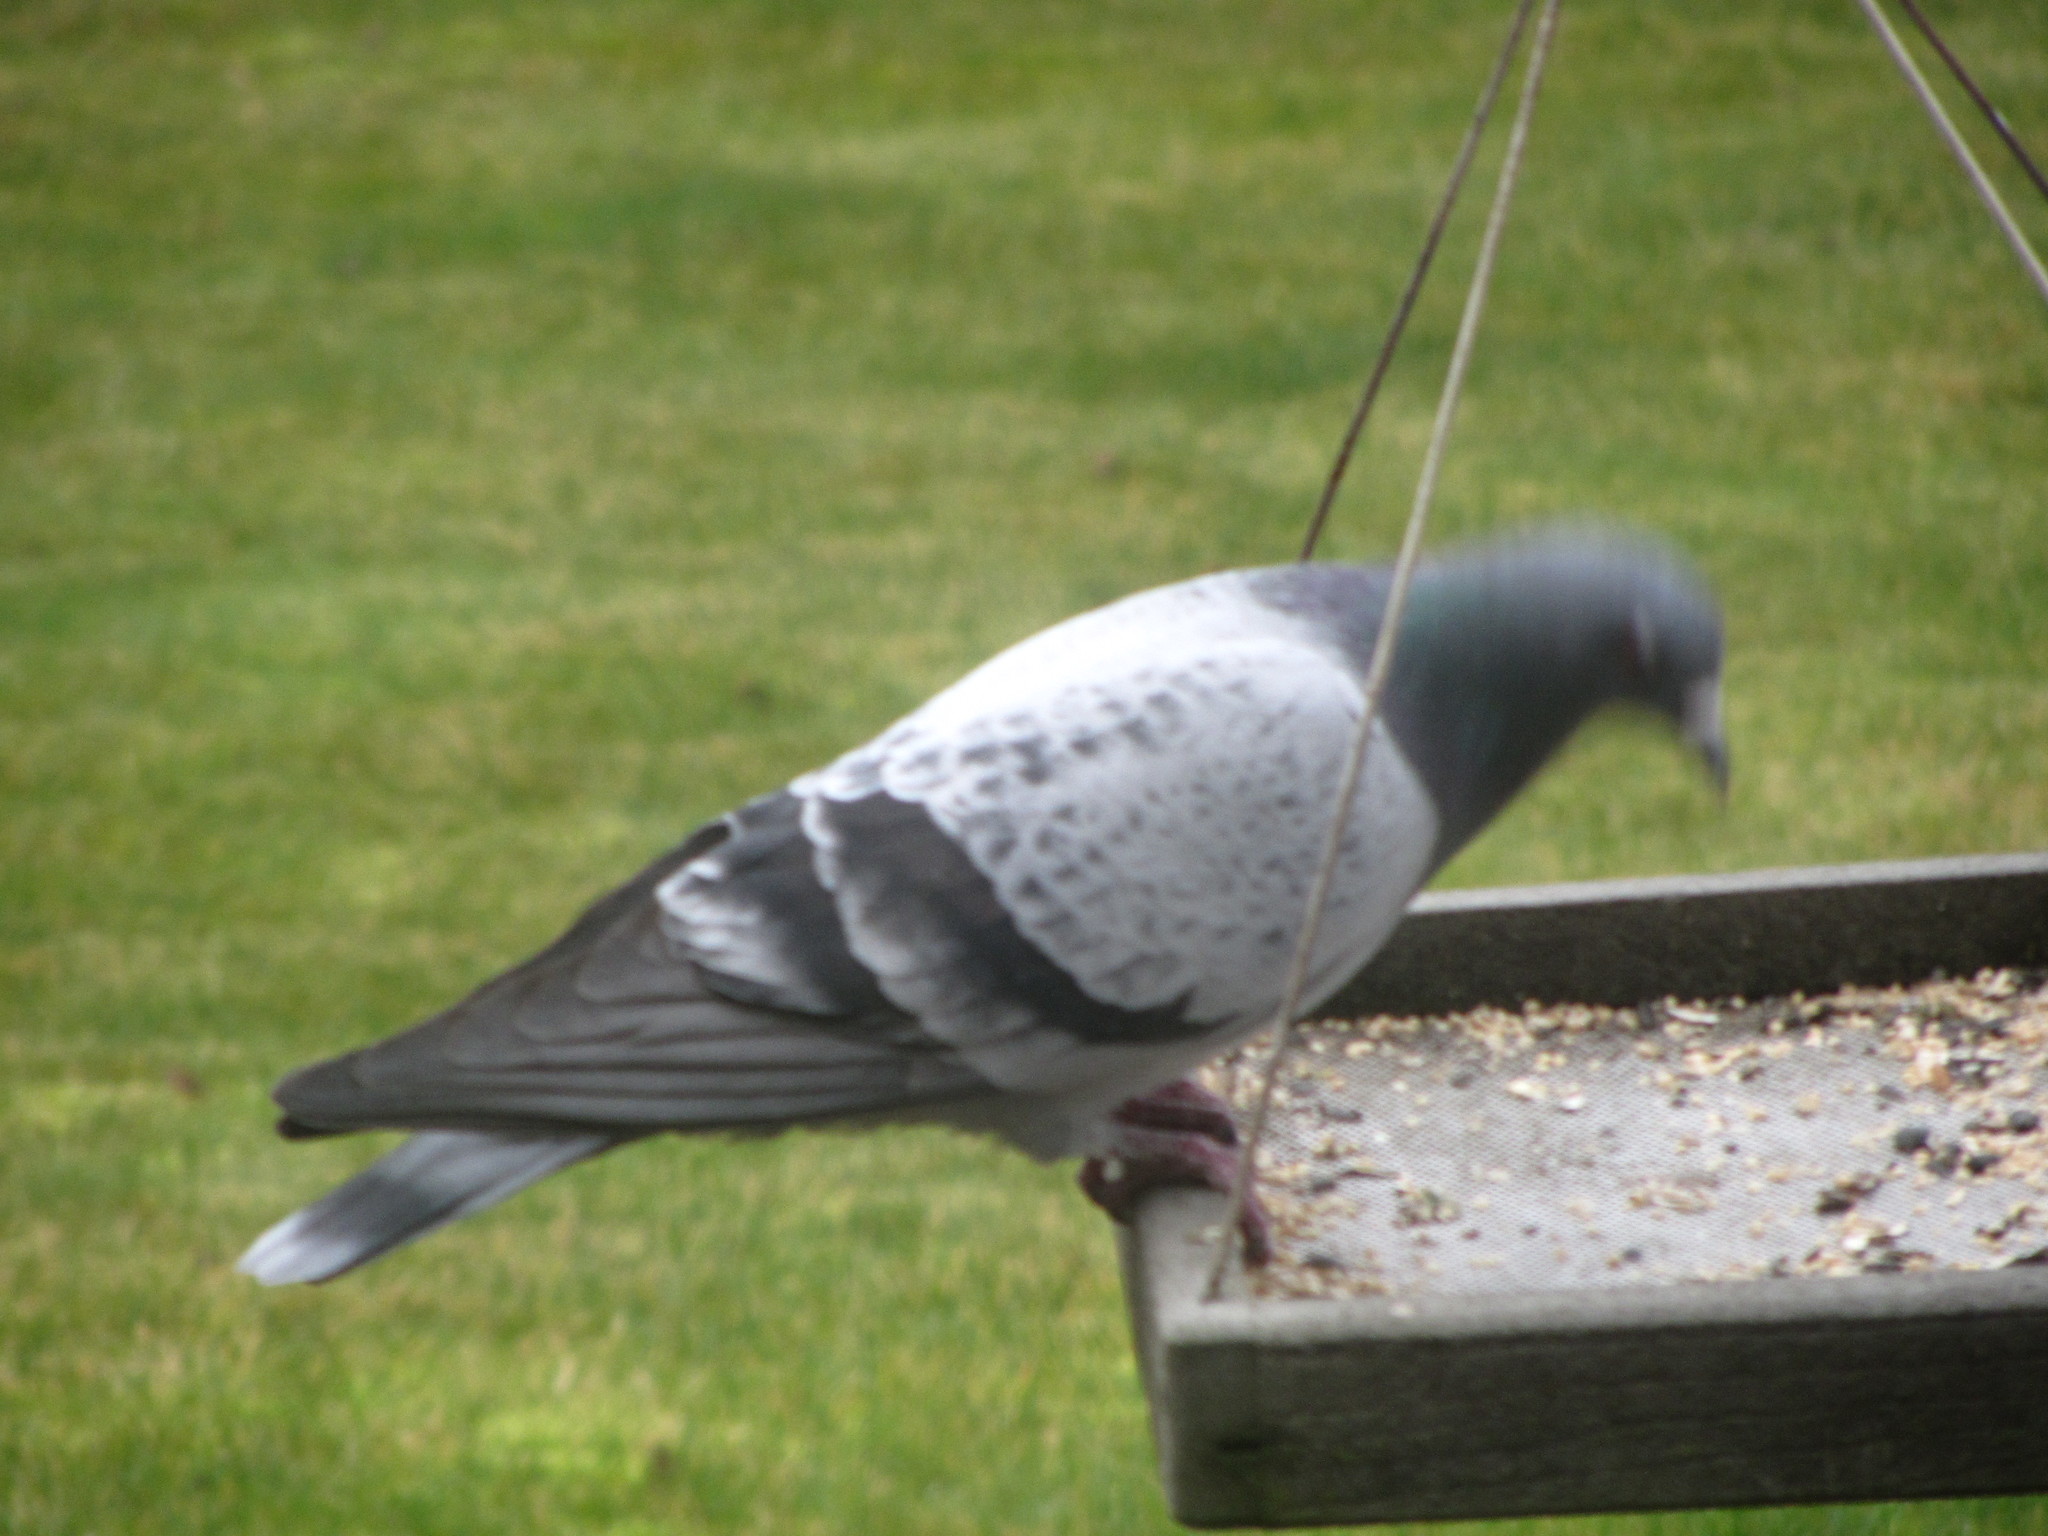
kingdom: Animalia
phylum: Chordata
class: Aves
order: Columbiformes
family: Columbidae
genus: Columba
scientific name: Columba livia
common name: Rock pigeon
